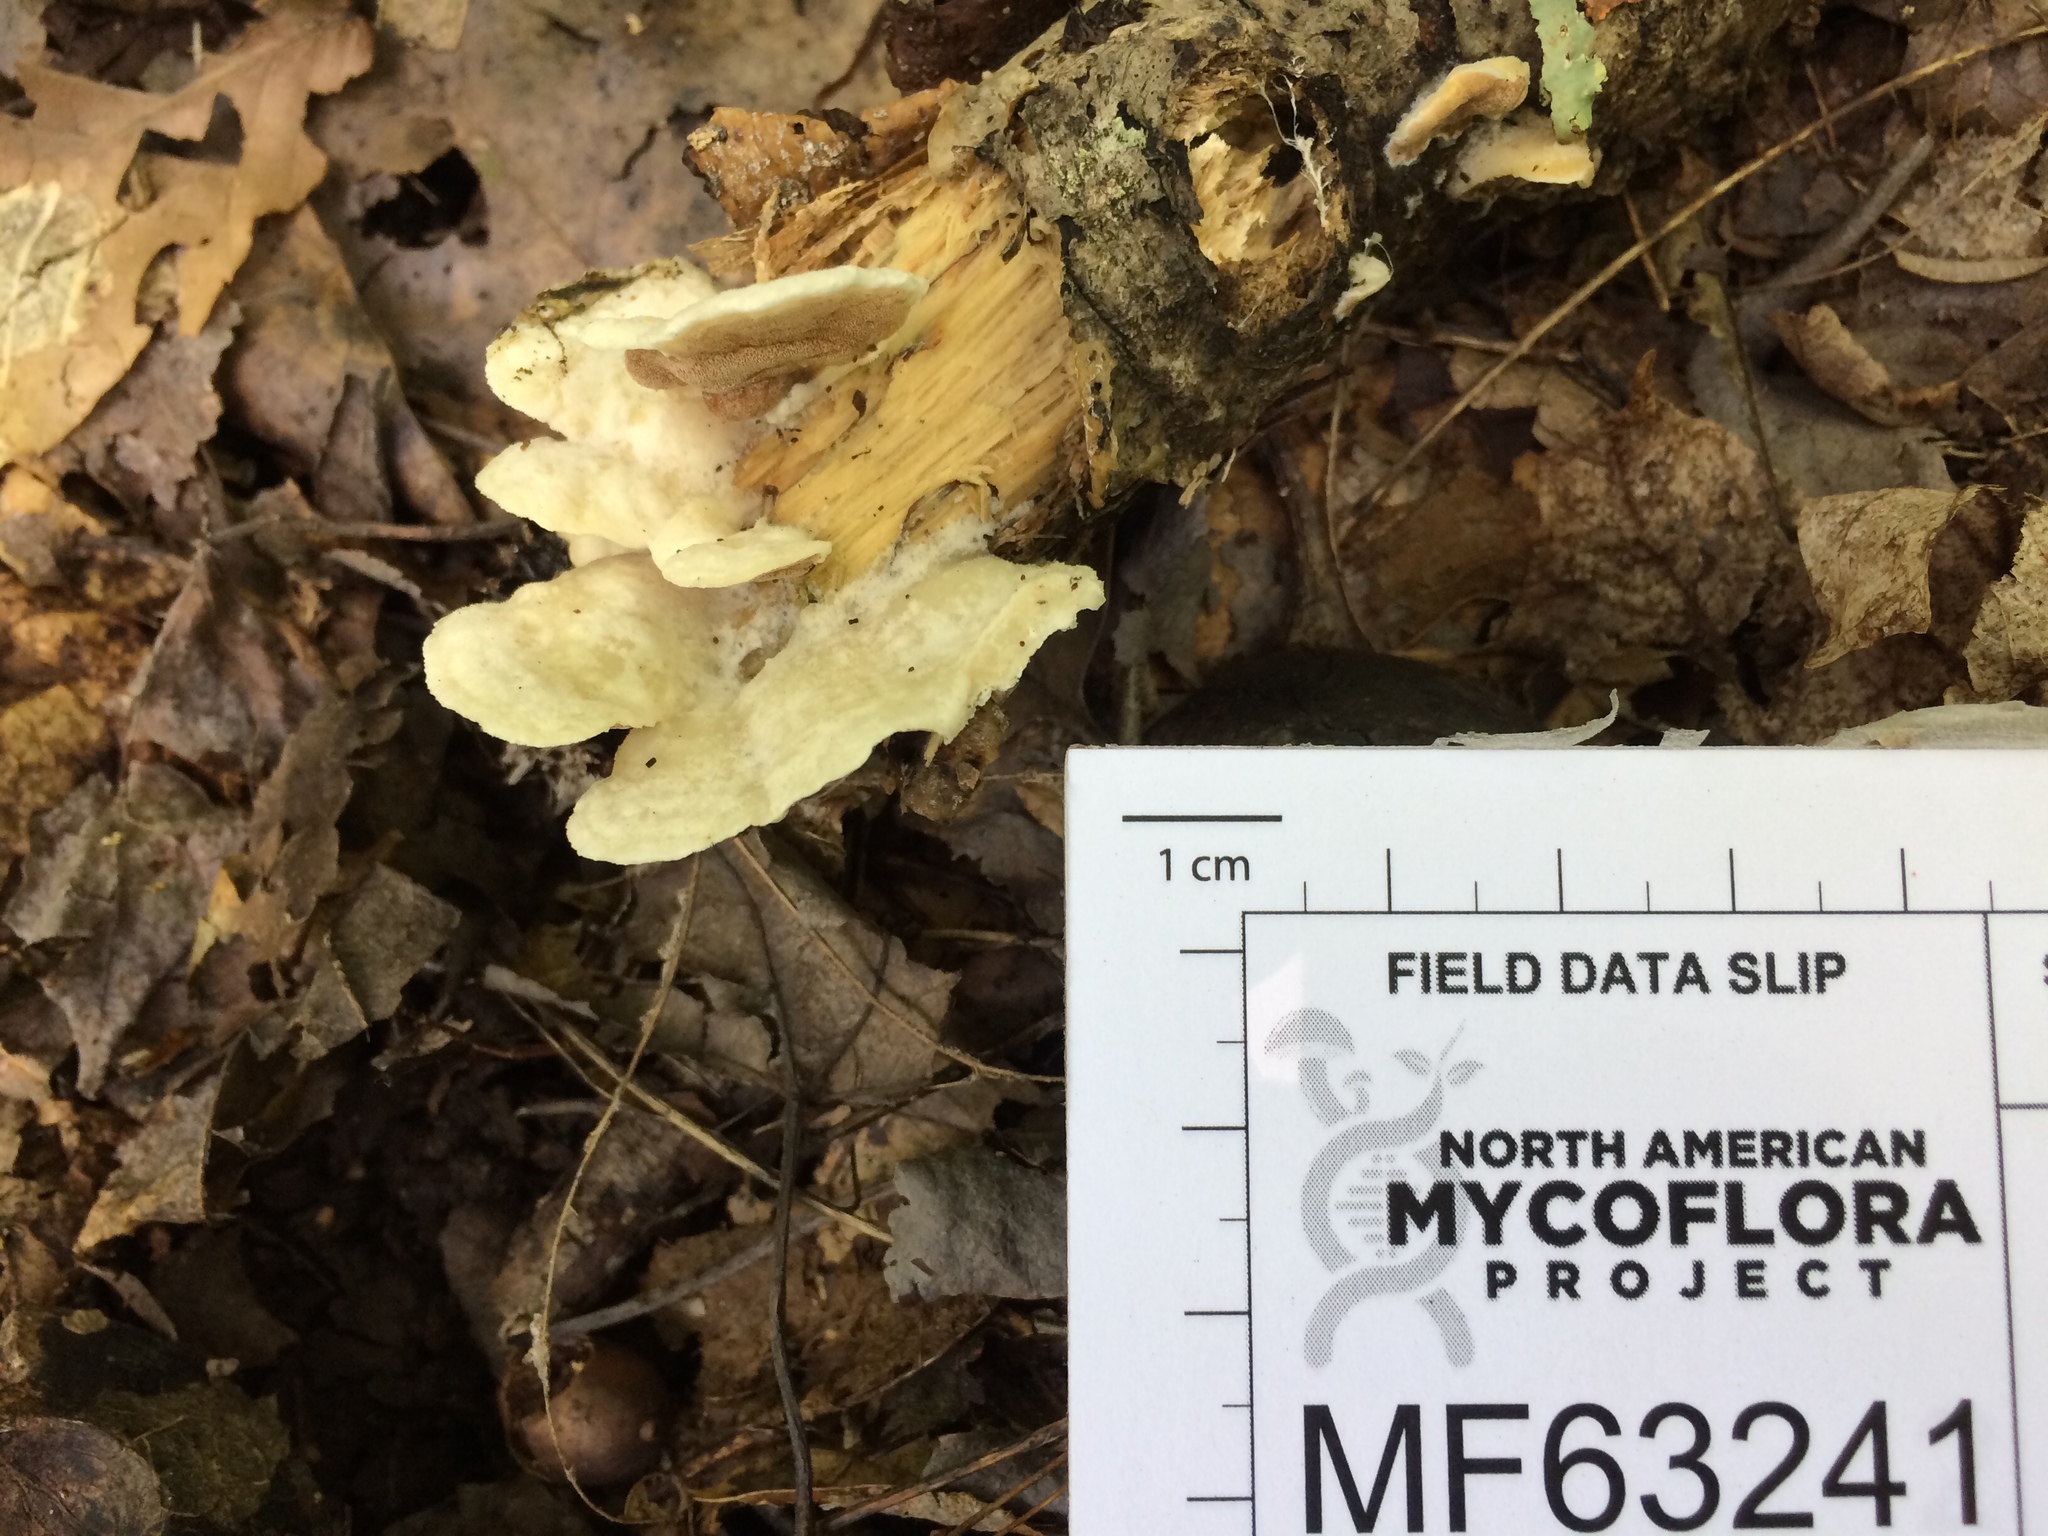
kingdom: Fungi
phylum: Basidiomycota
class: Agaricomycetes
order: Polyporales
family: Irpicaceae
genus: Vitreoporus
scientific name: Vitreoporus dichrous
